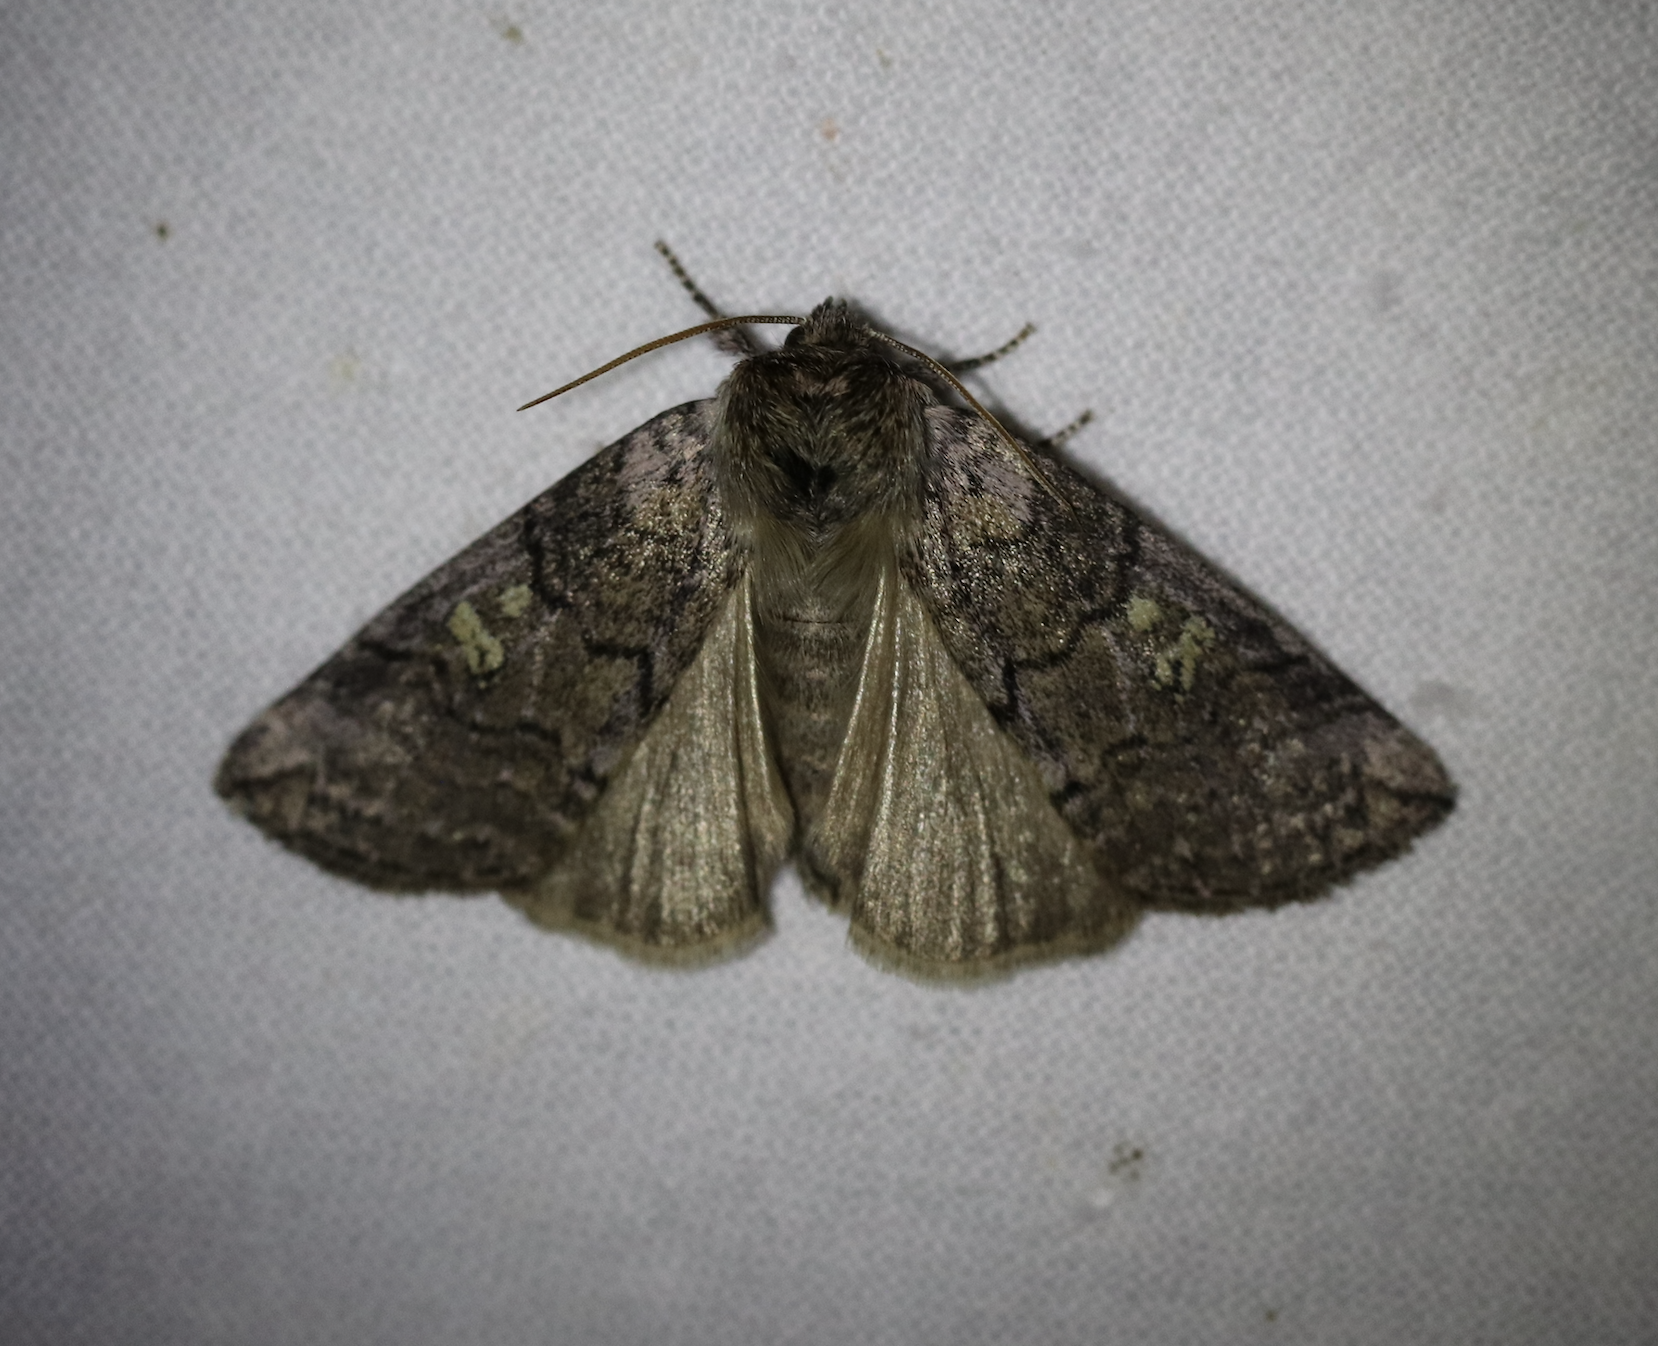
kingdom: Animalia
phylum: Arthropoda
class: Insecta
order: Lepidoptera
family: Drepanidae
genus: Tethea
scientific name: Tethea or
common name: Poplar lutestring
